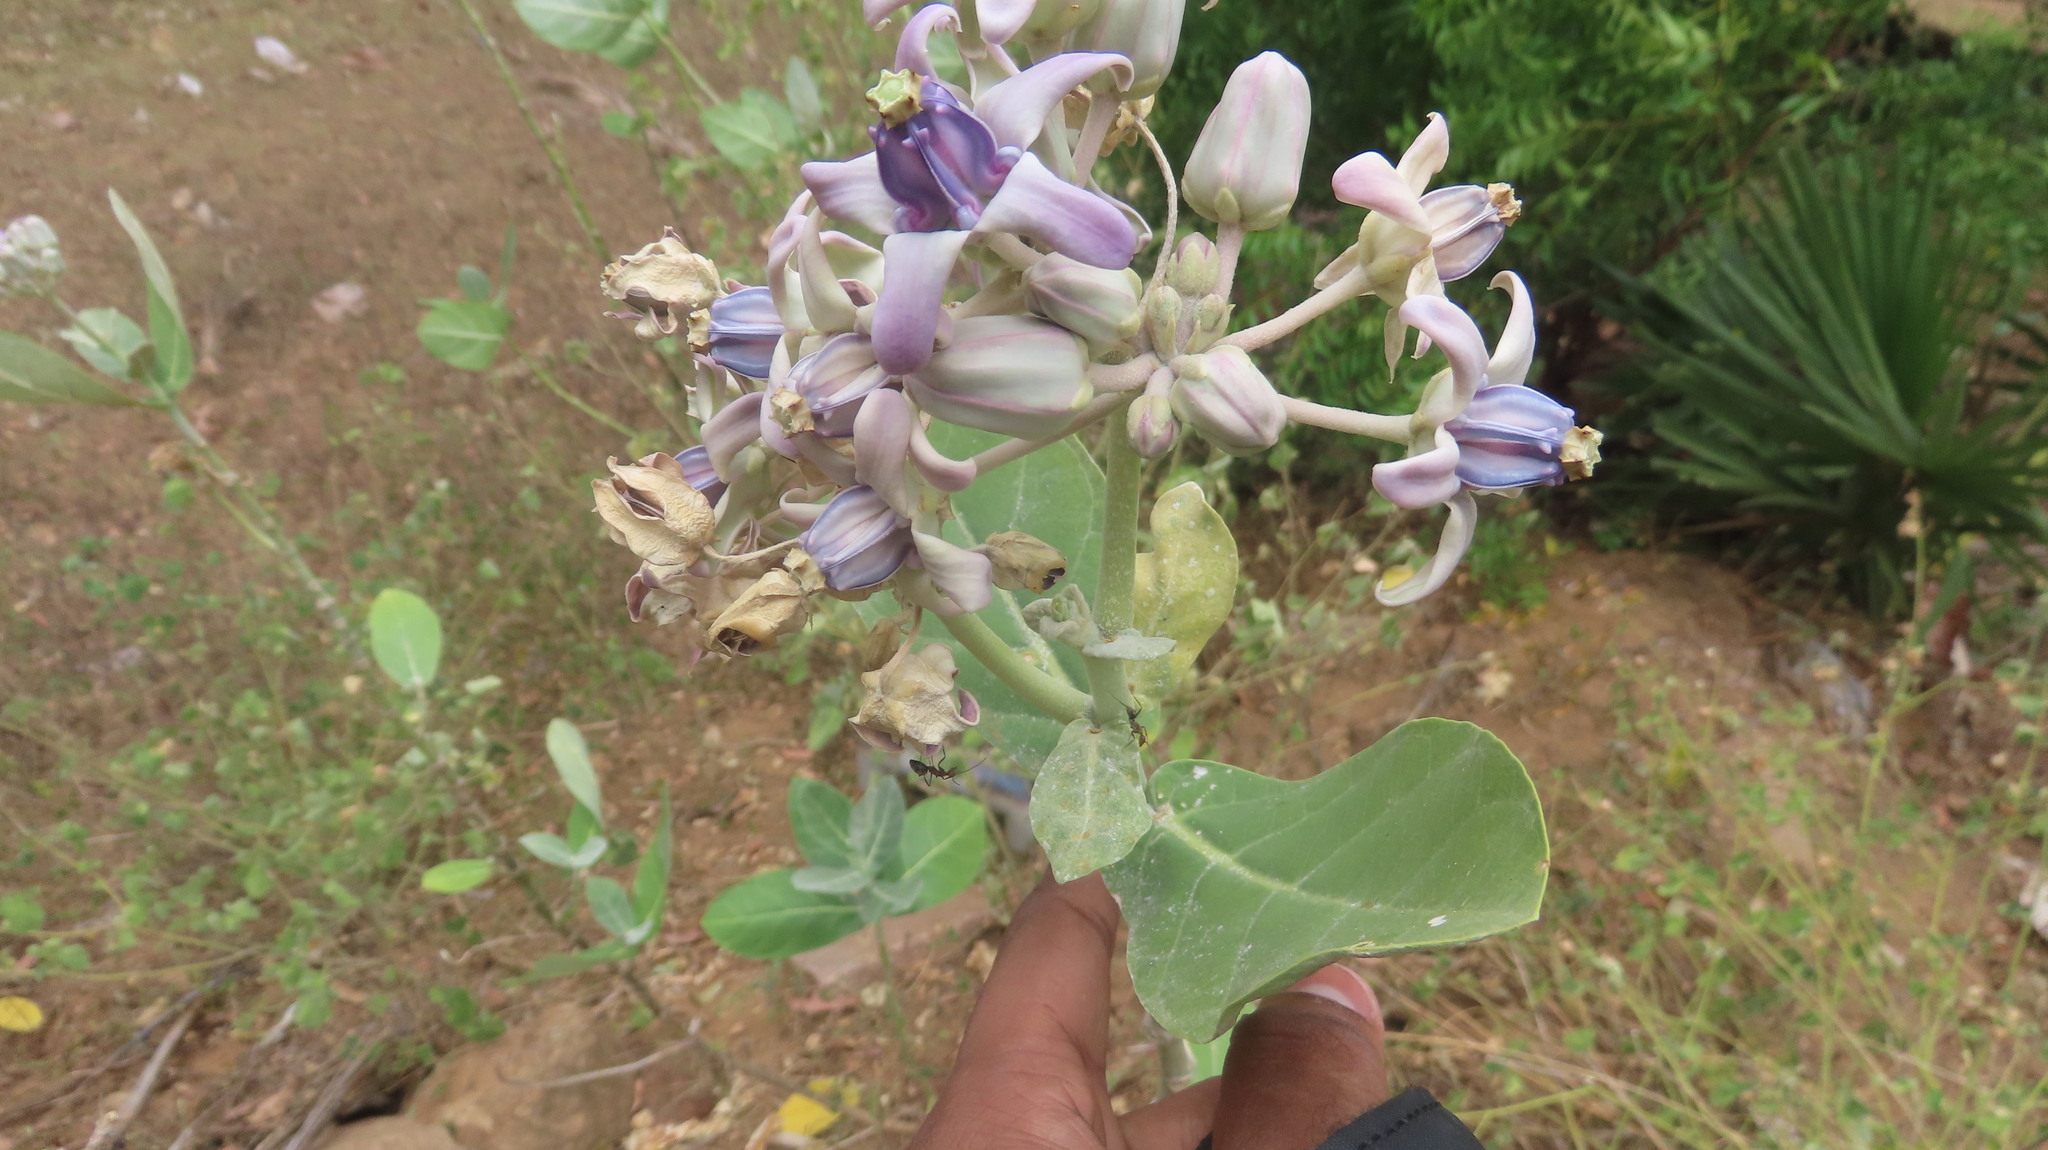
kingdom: Plantae
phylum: Tracheophyta
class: Magnoliopsida
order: Gentianales
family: Apocynaceae
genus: Calotropis
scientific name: Calotropis gigantea
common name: Crown flower
